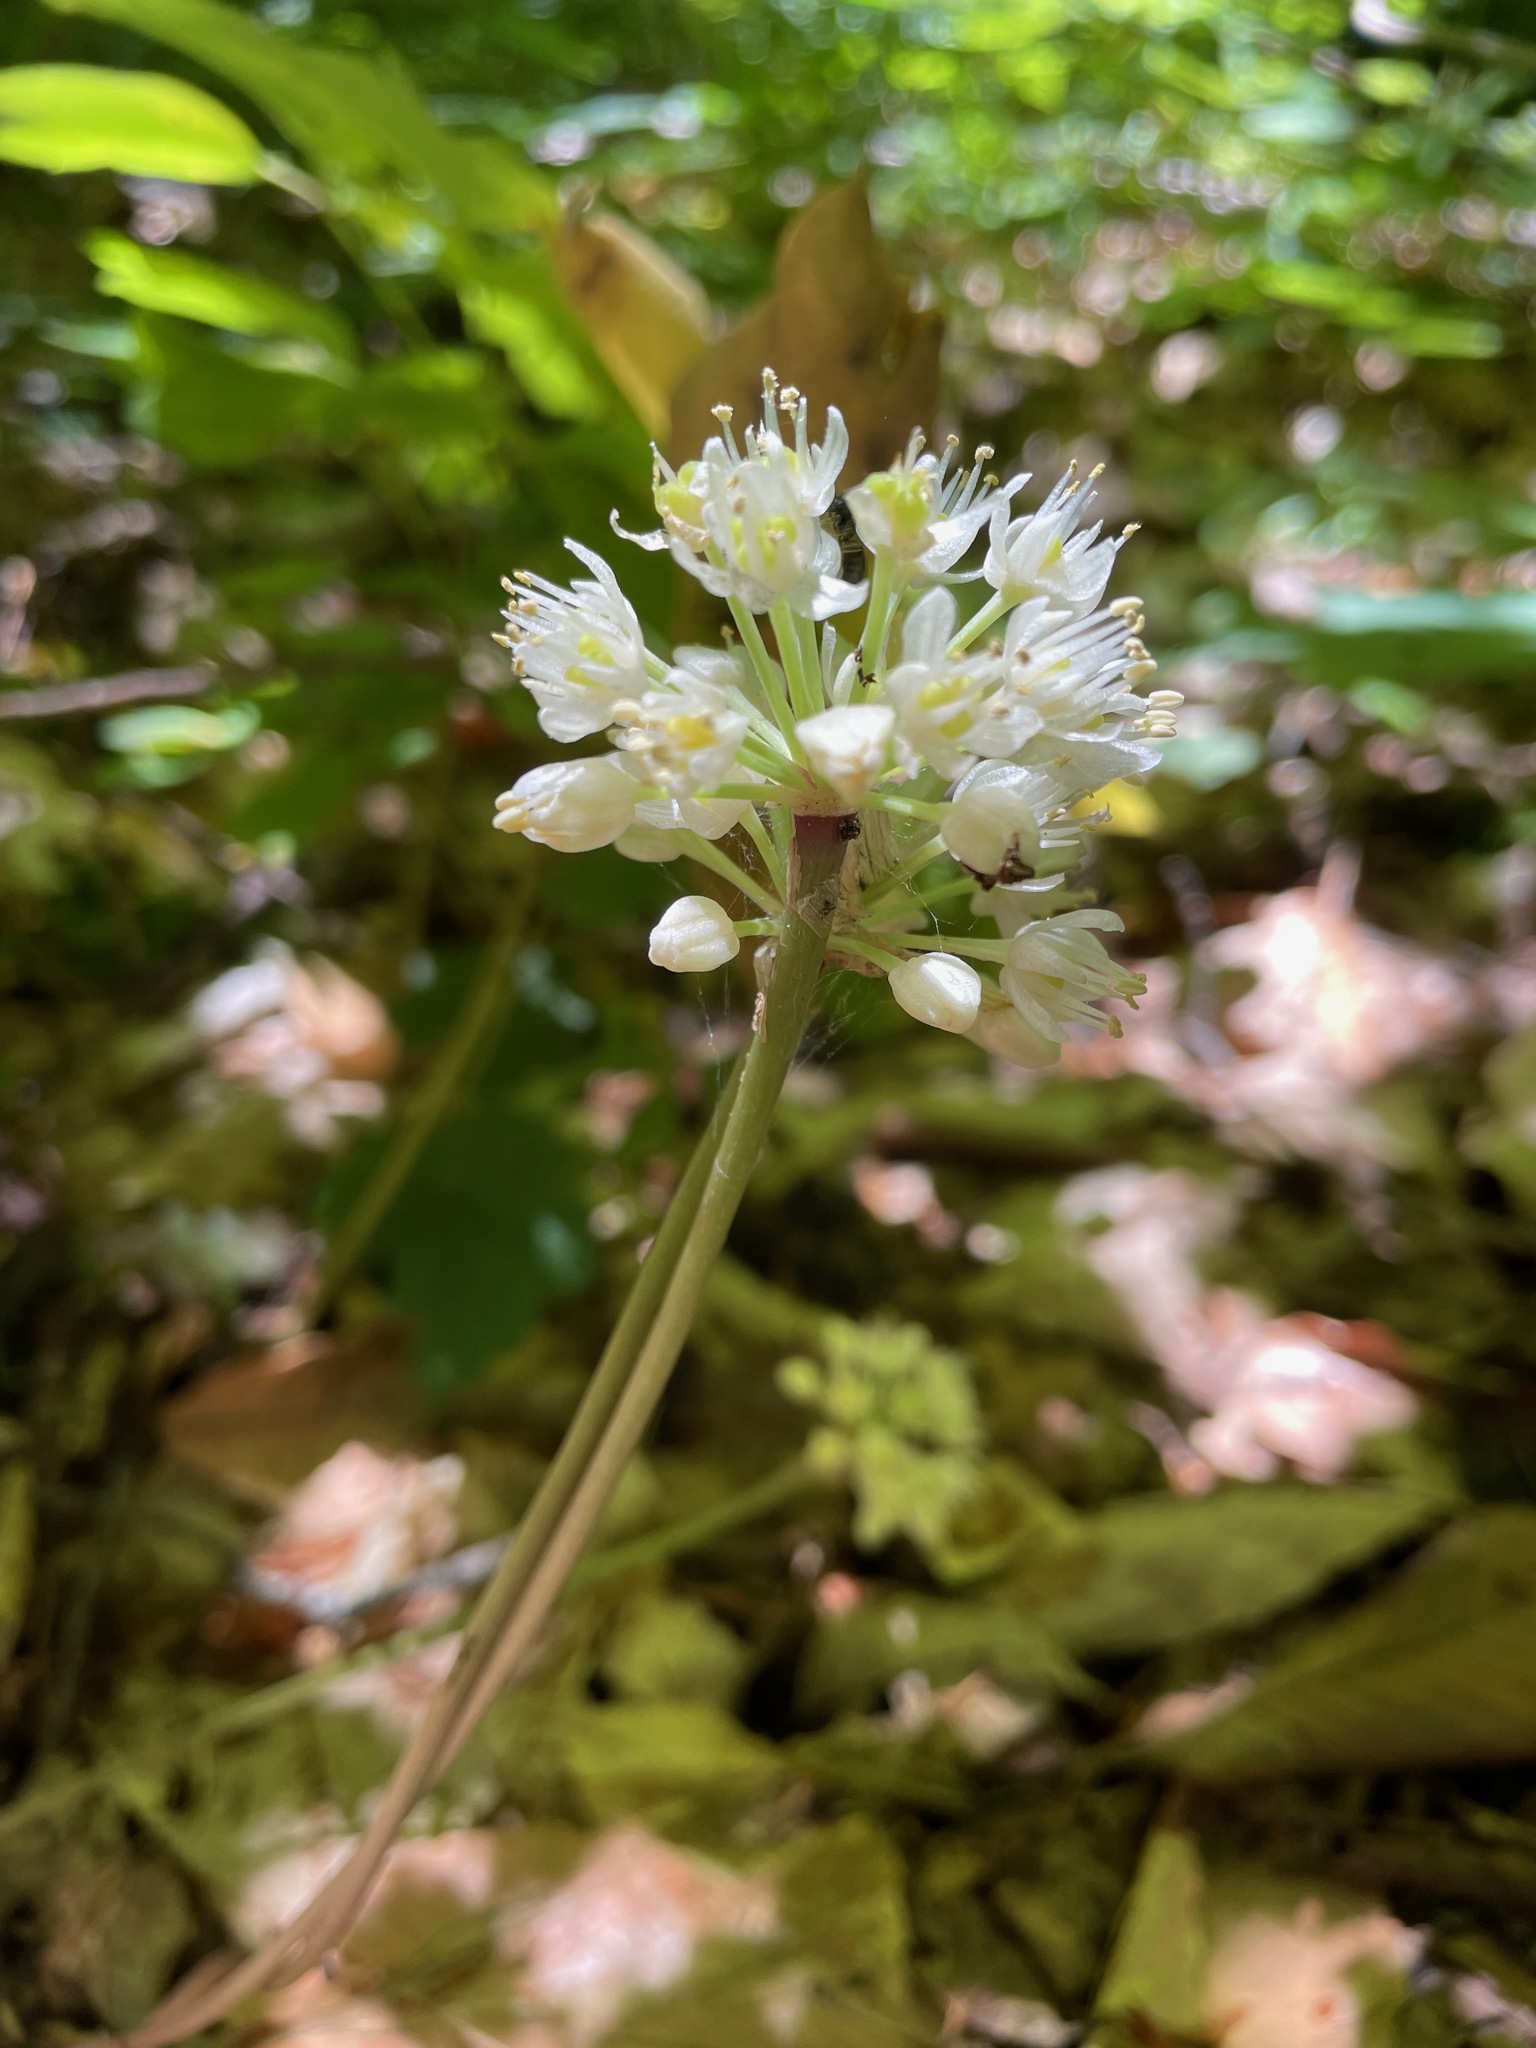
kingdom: Plantae
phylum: Tracheophyta
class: Liliopsida
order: Asparagales
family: Amaryllidaceae
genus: Allium
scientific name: Allium tricoccum
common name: Ramp
